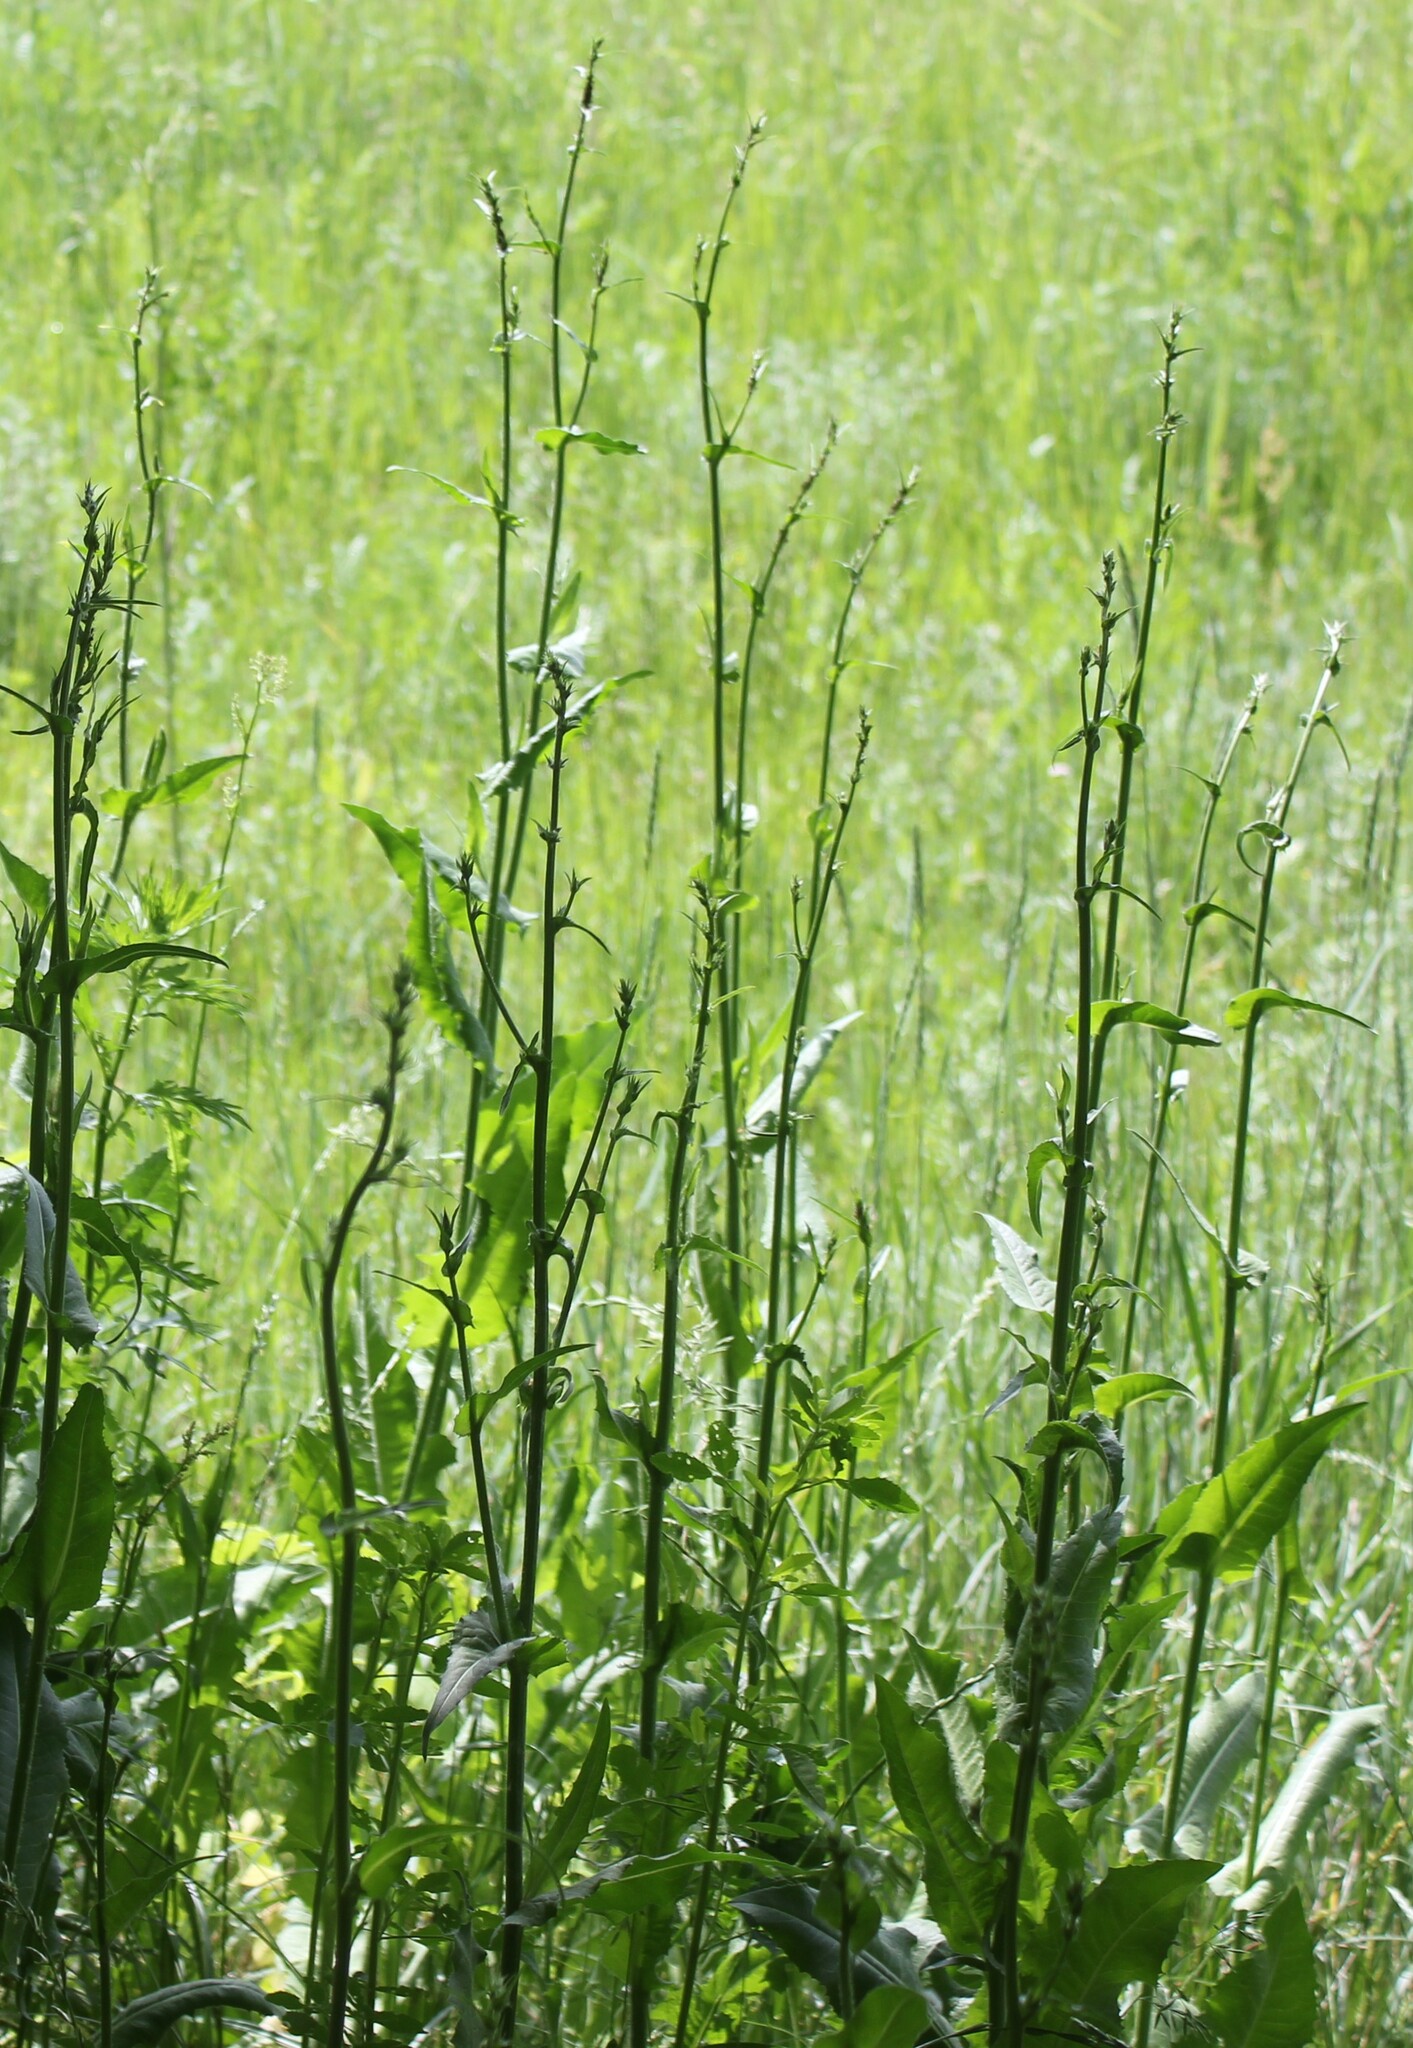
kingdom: Plantae
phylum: Tracheophyta
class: Magnoliopsida
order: Asterales
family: Asteraceae
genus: Cichorium
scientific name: Cichorium intybus
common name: Chicory
